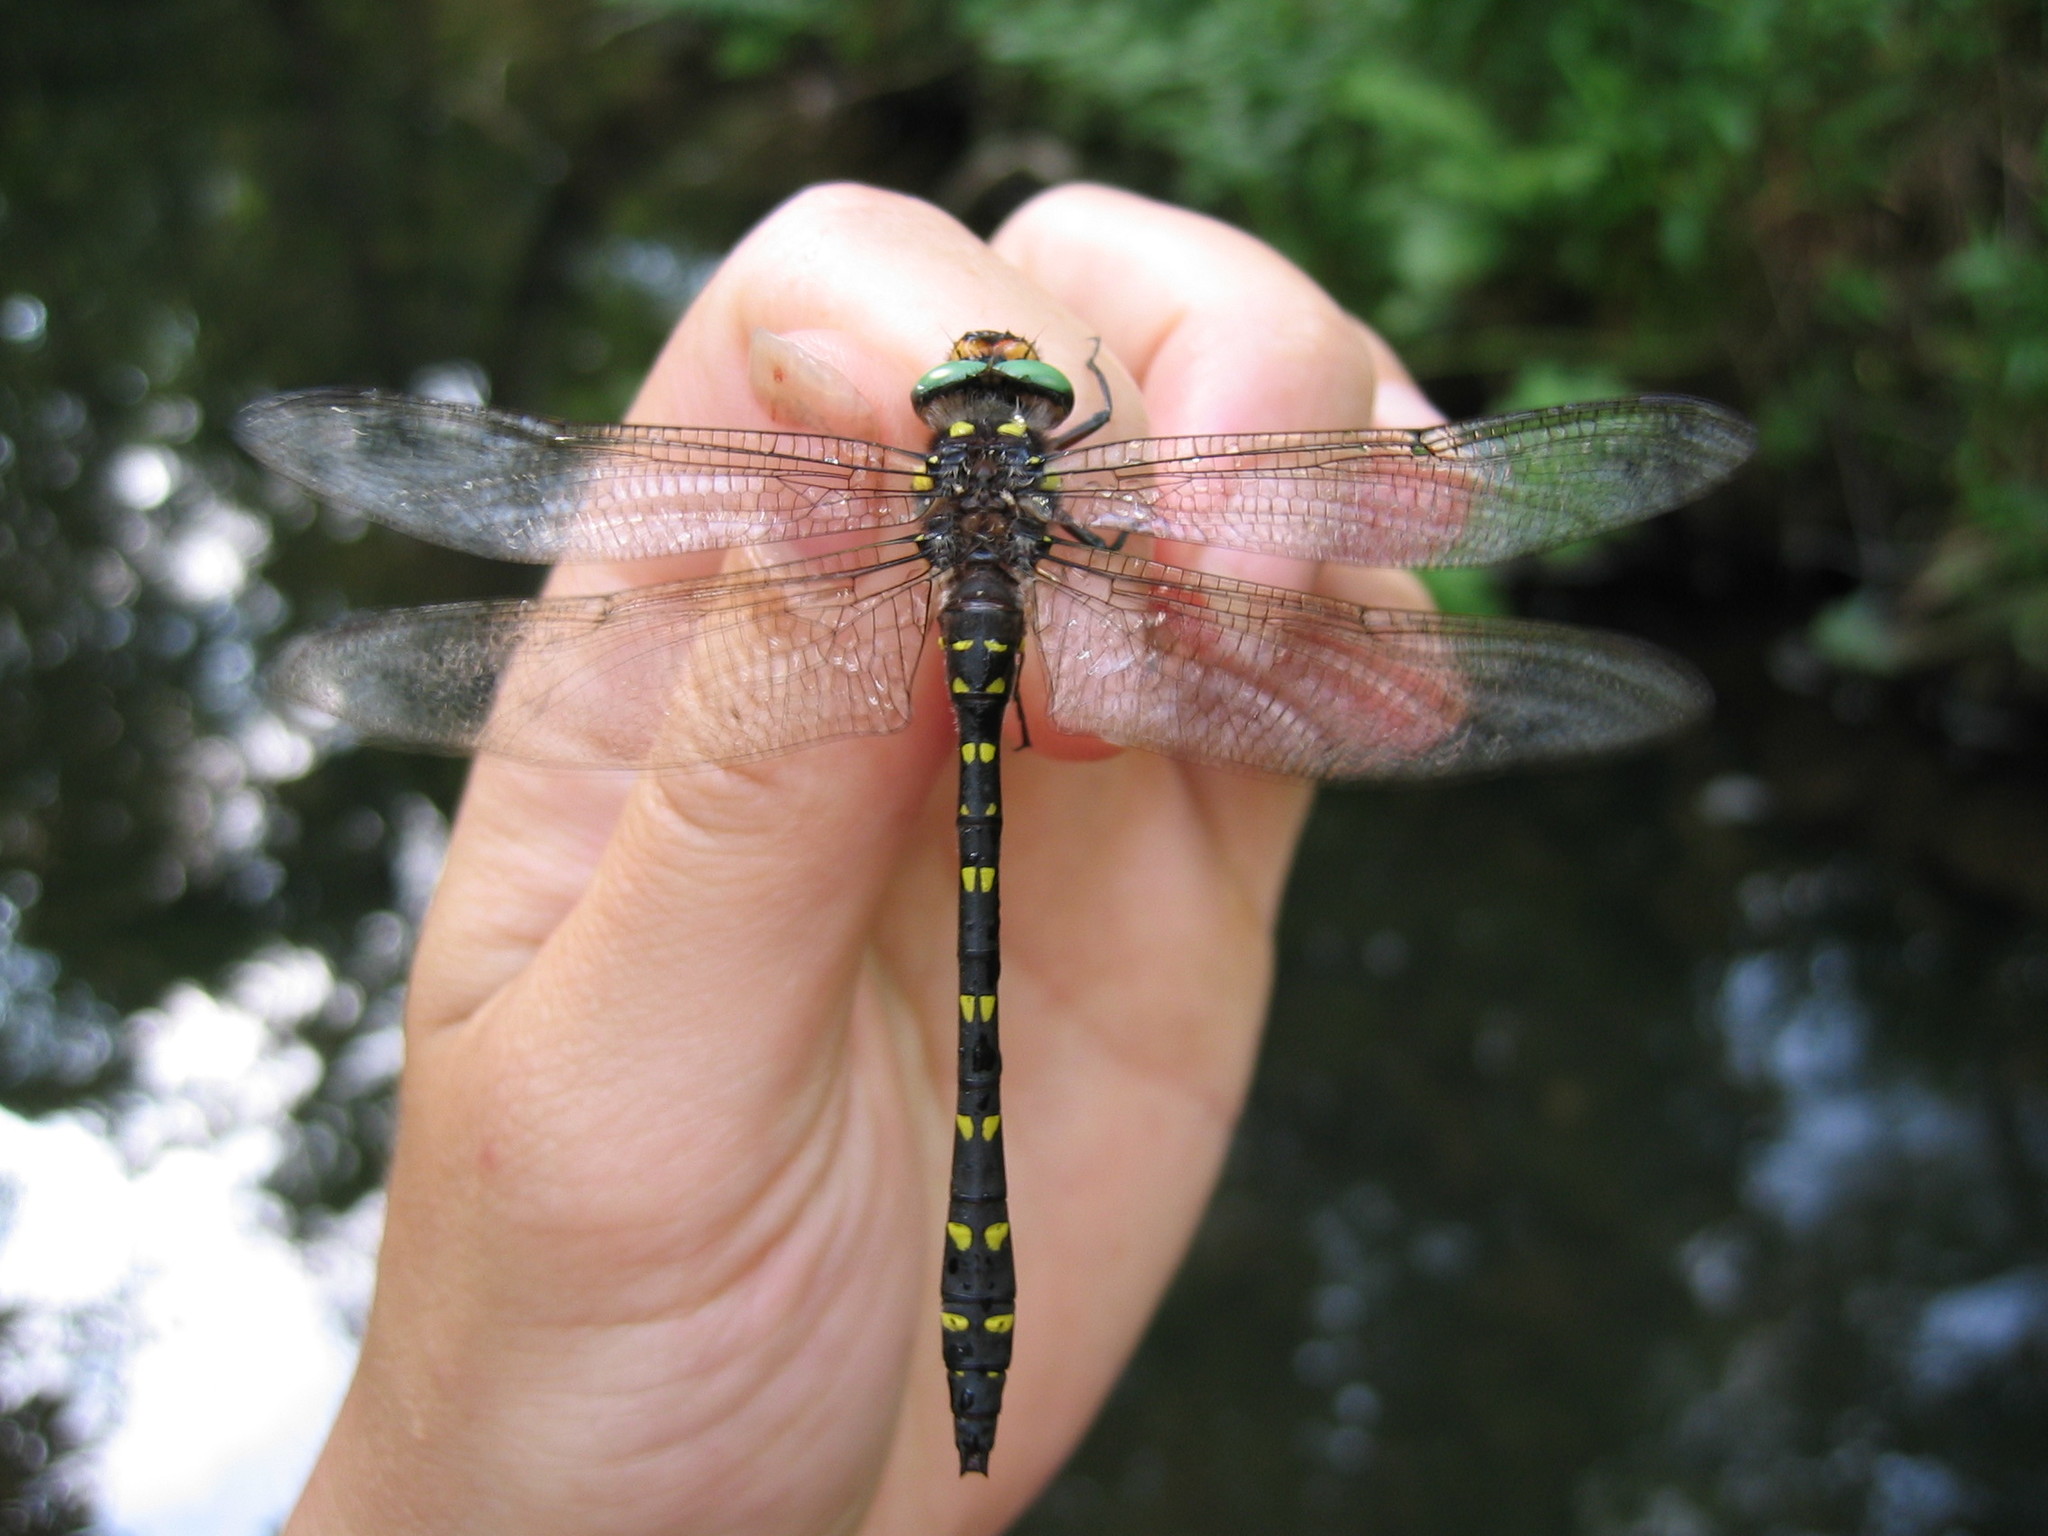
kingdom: Animalia
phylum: Arthropoda
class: Insecta
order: Odonata
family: Cordulegastridae
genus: Cordulegaster
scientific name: Cordulegaster maculata
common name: Twin-spotted spiketail
